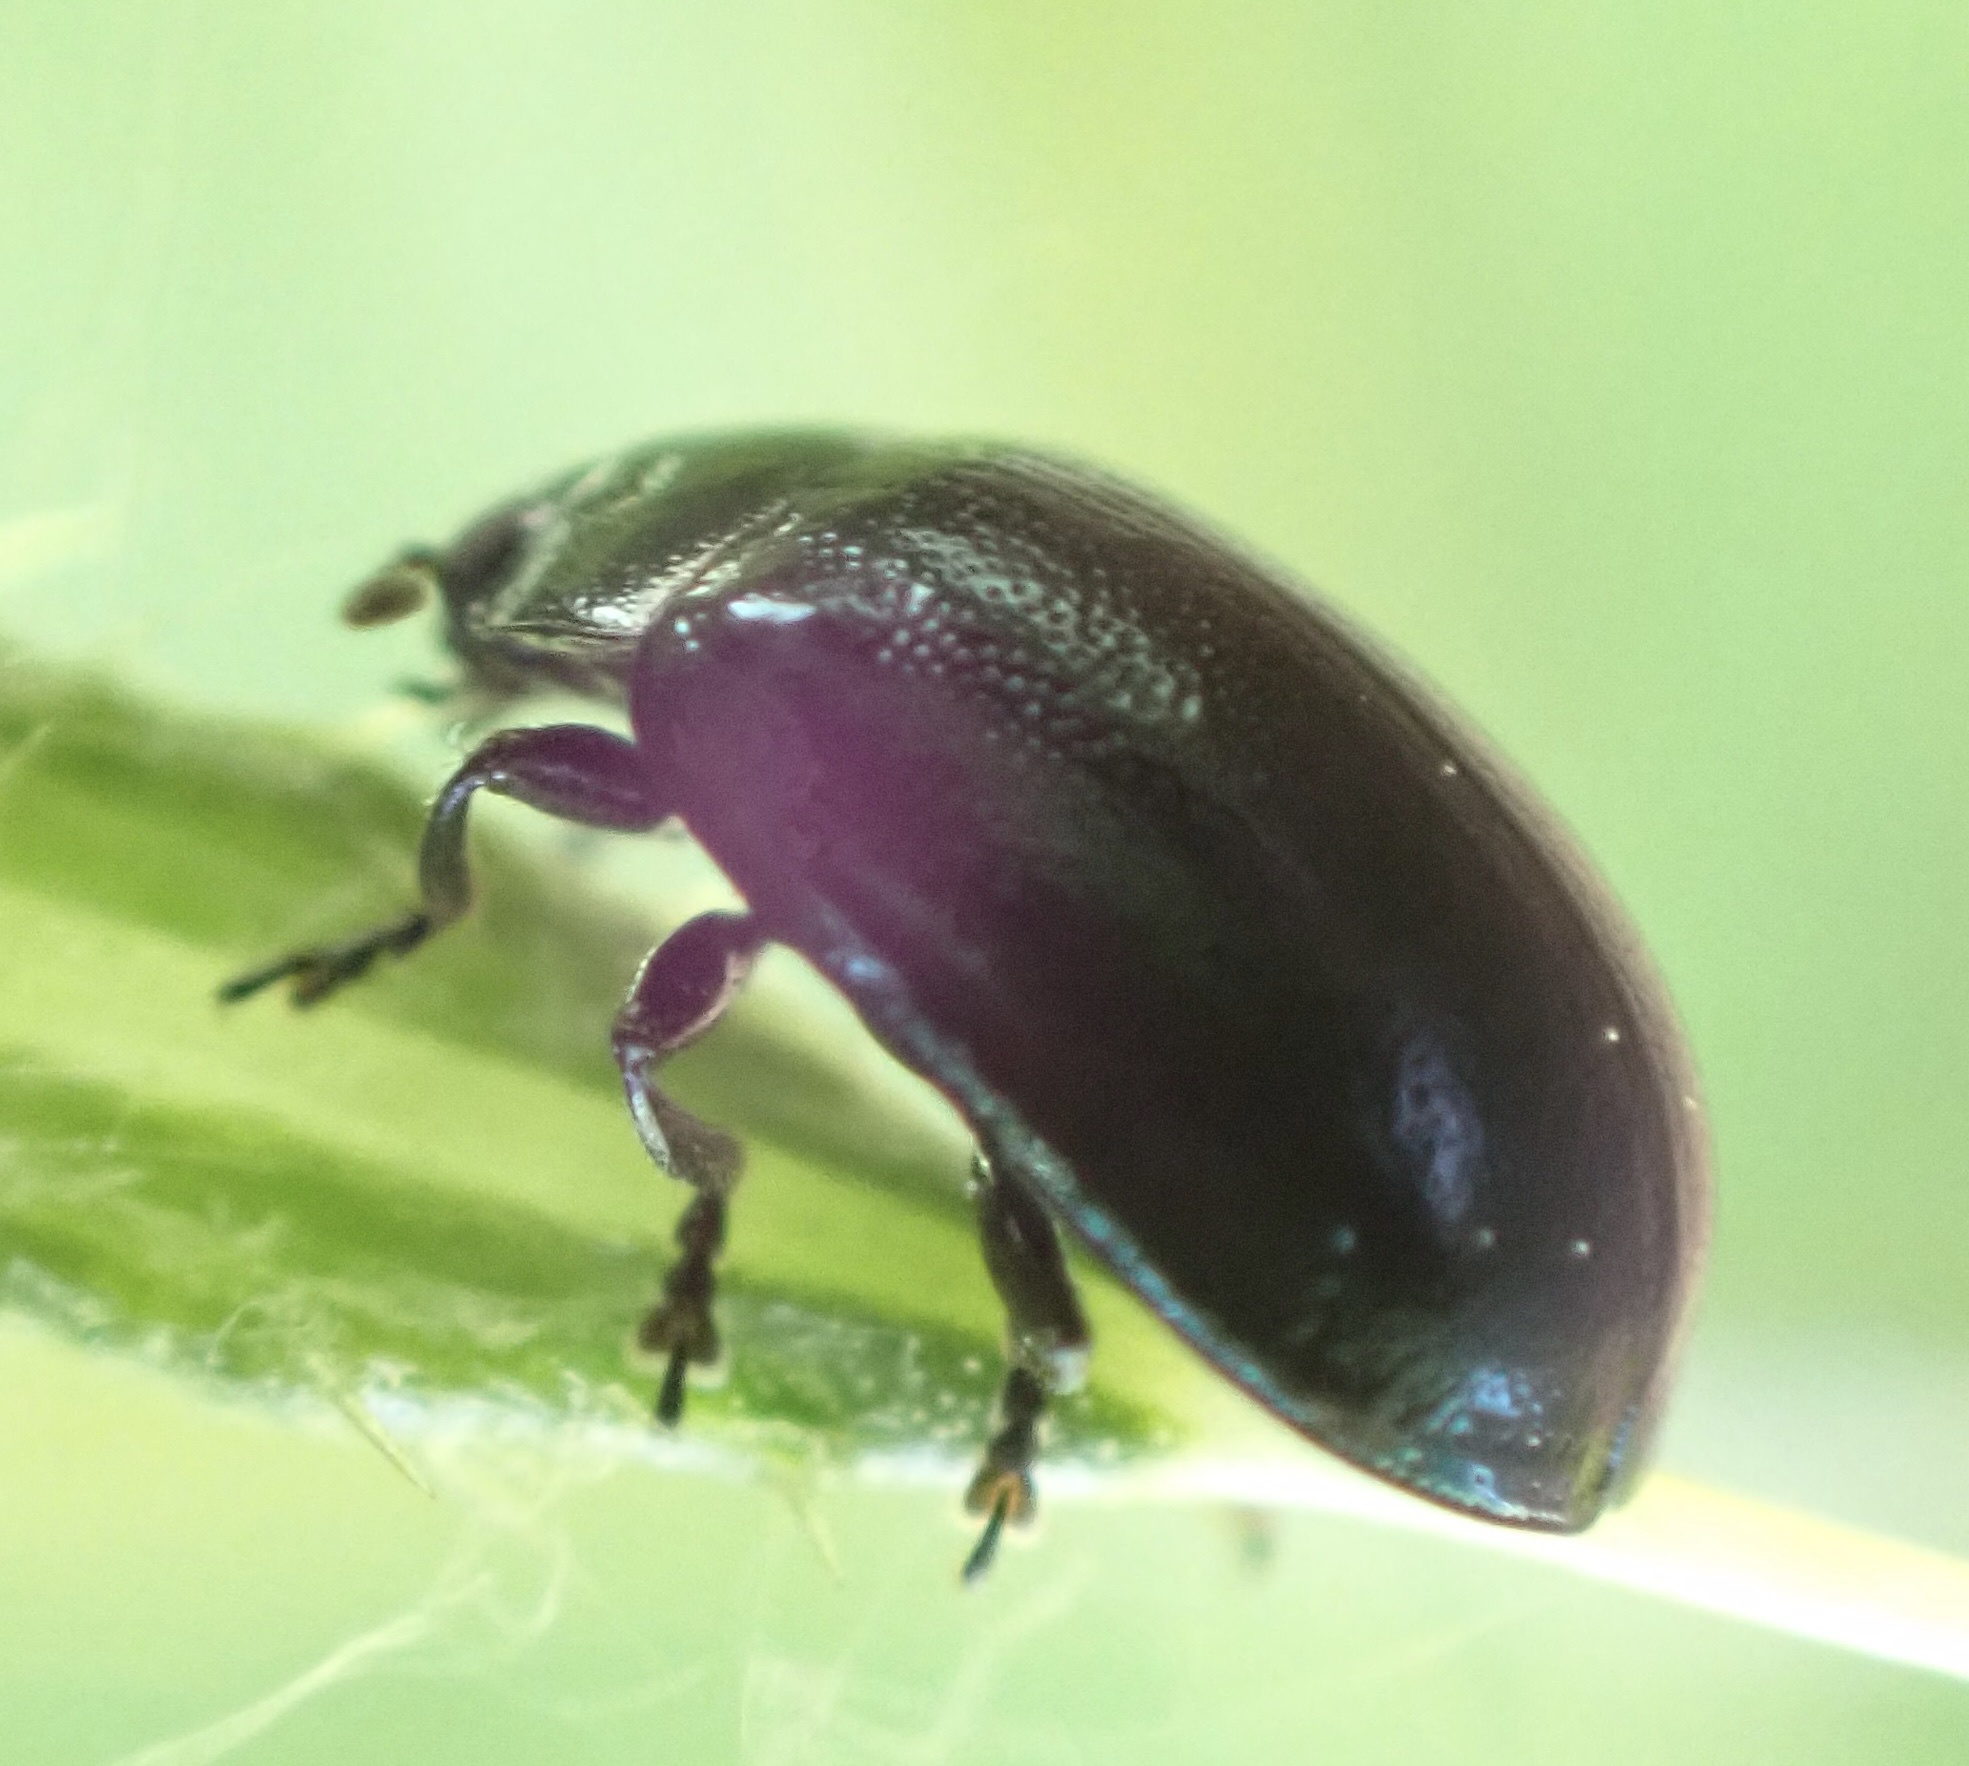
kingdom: Animalia
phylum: Arthropoda
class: Insecta
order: Coleoptera
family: Chrysomelidae
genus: Plagiodera
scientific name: Plagiodera versicolora
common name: Imported willow leaf beetle
